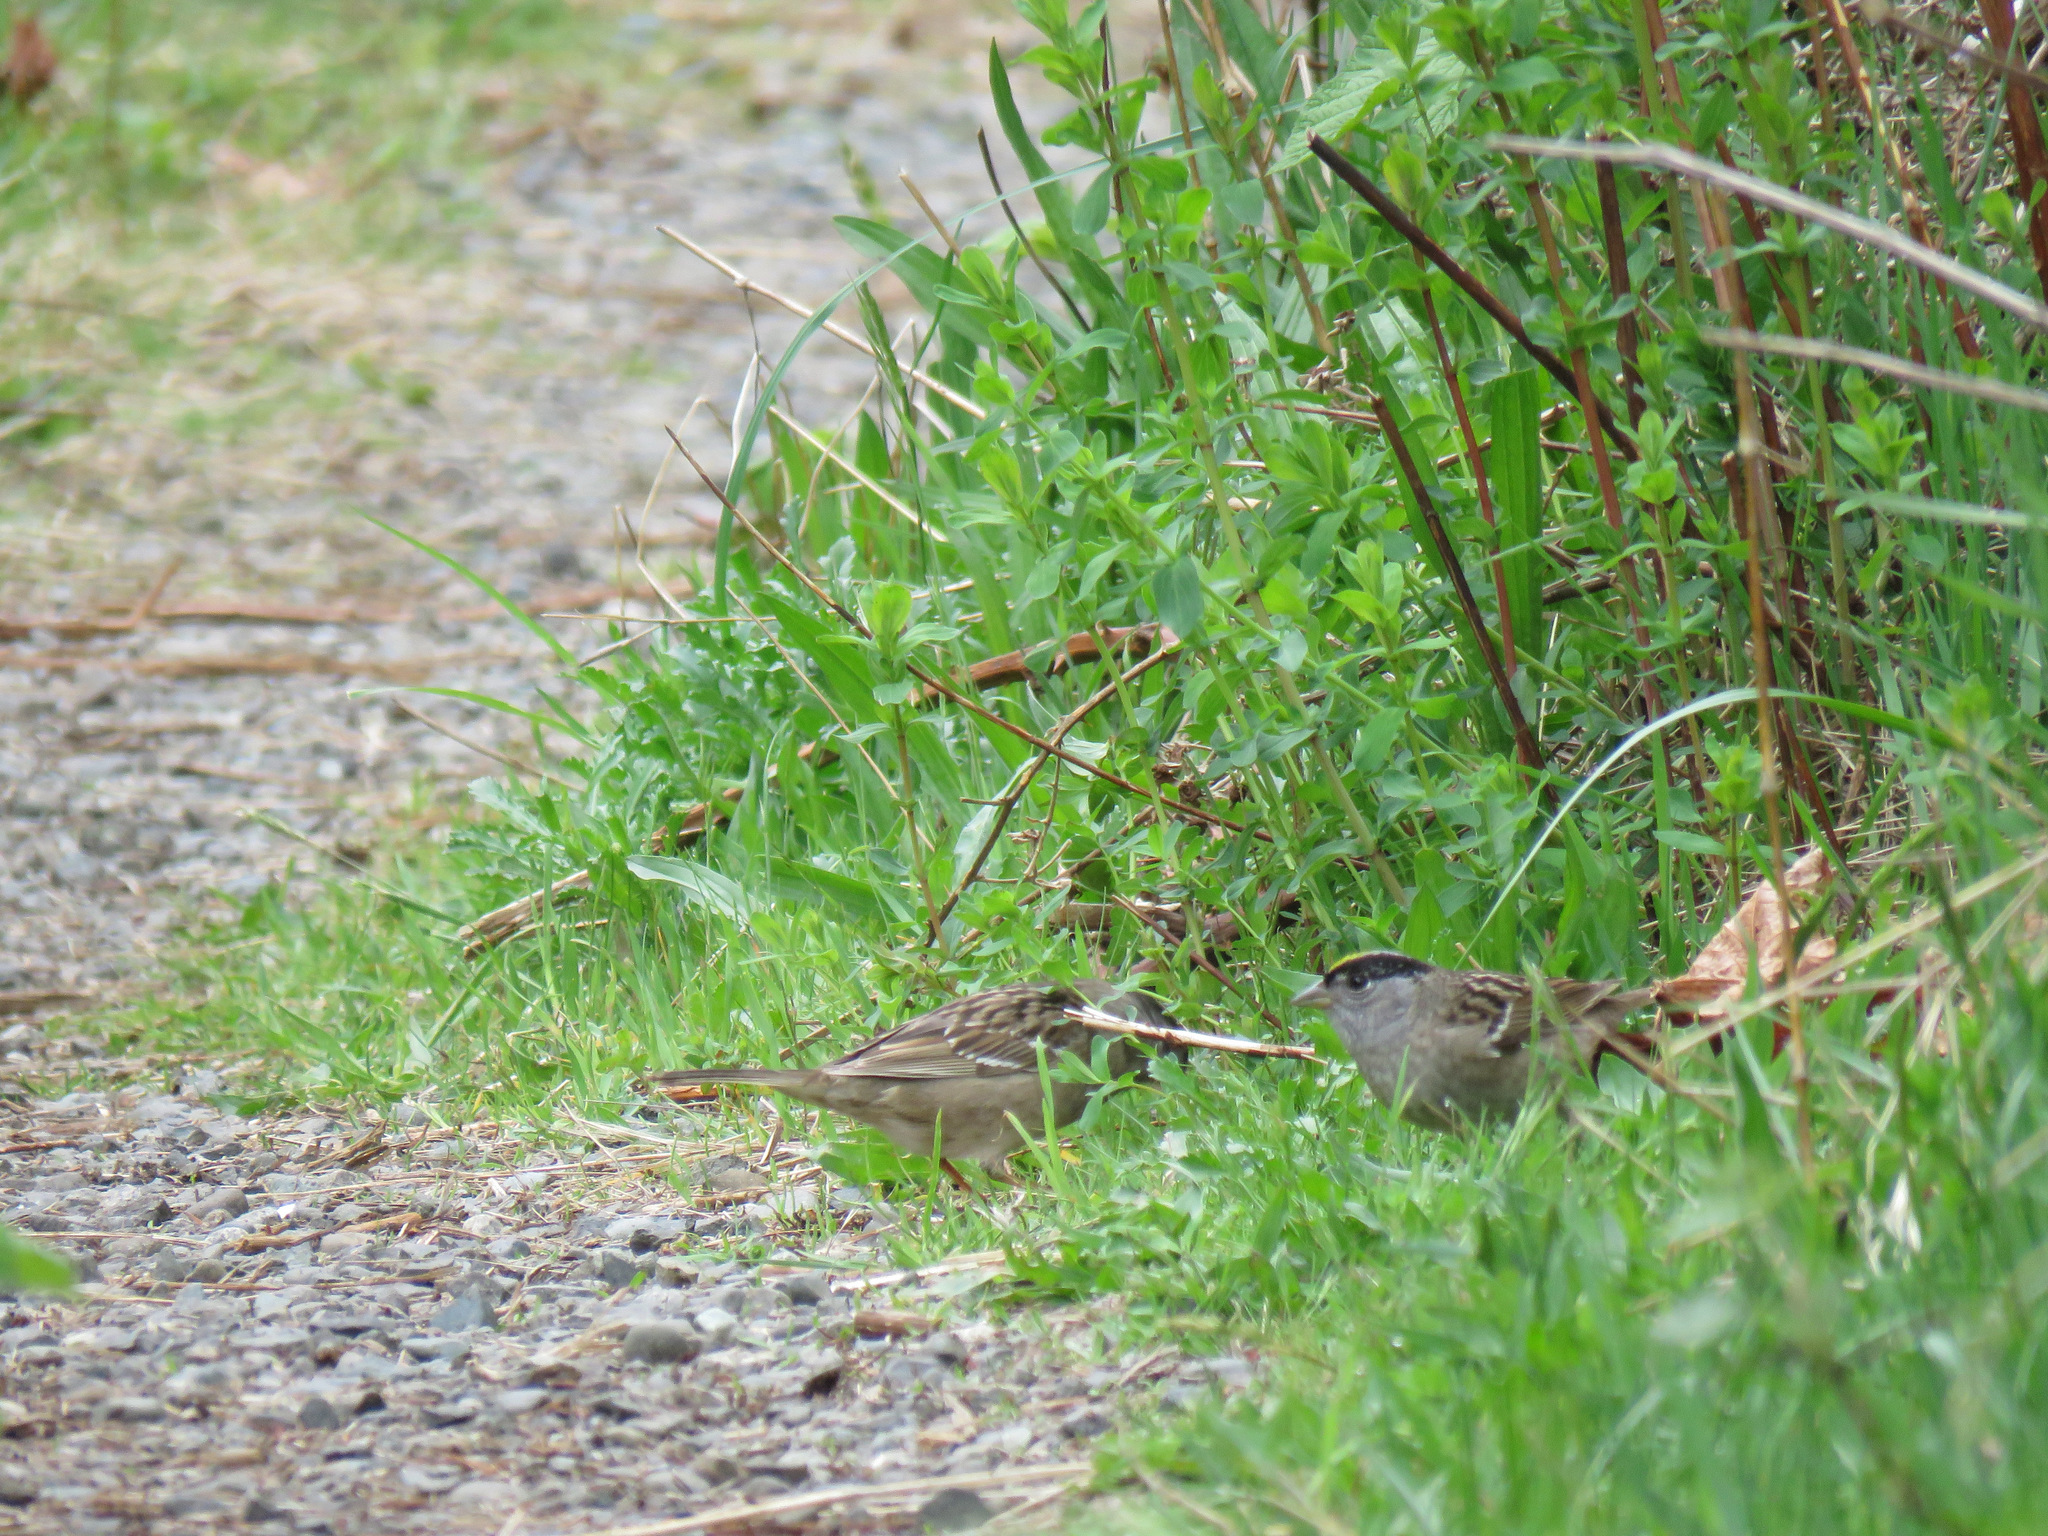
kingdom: Animalia
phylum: Chordata
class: Aves
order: Passeriformes
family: Passerellidae
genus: Zonotrichia
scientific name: Zonotrichia atricapilla
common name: Golden-crowned sparrow
